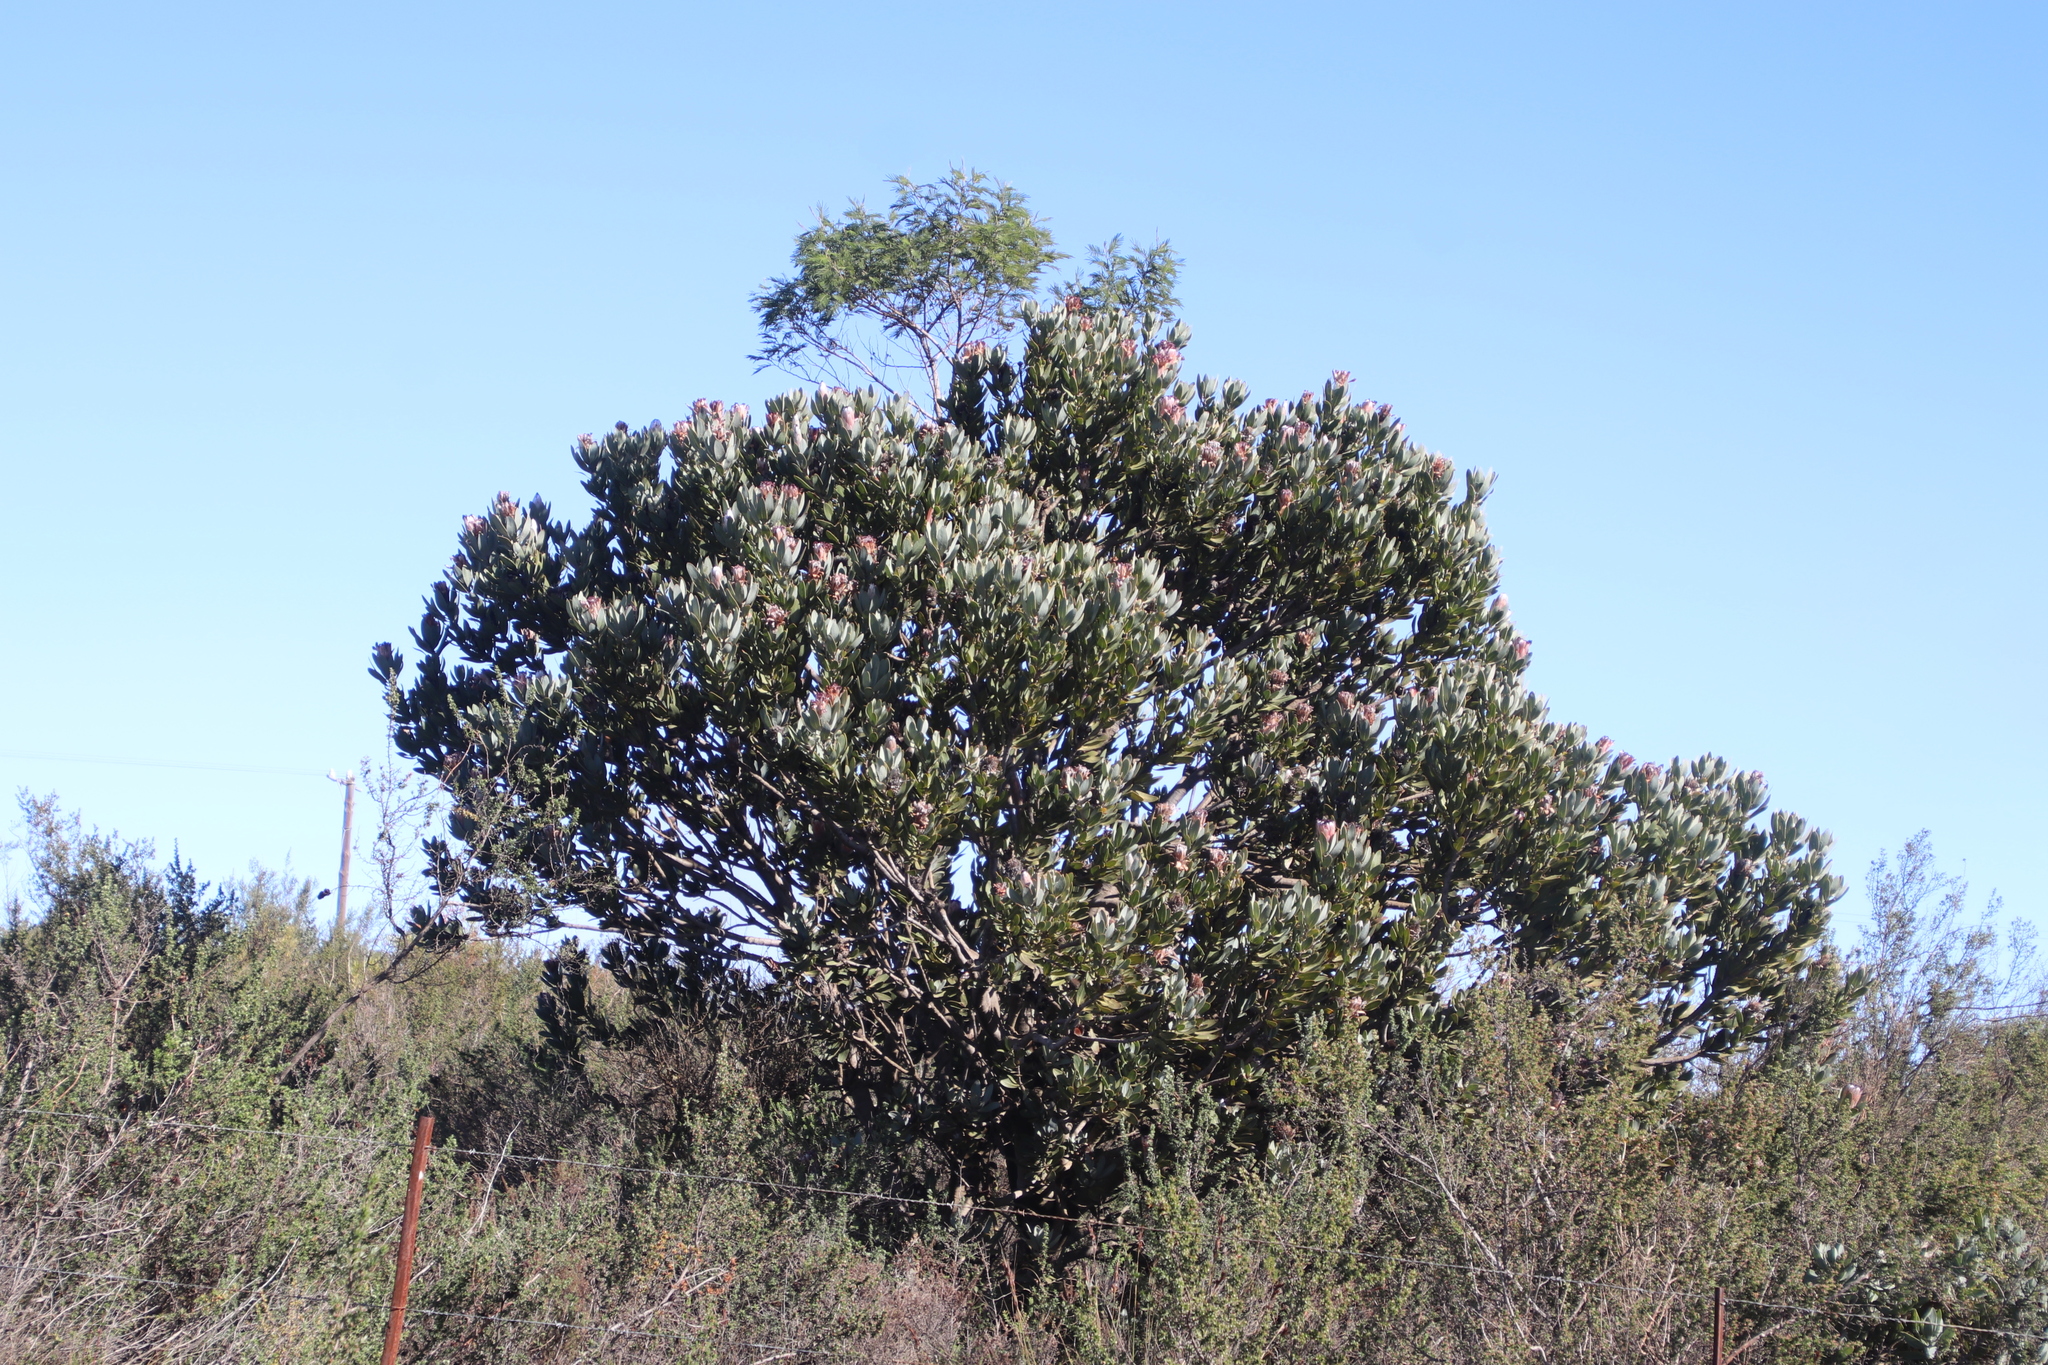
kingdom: Plantae
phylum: Tracheophyta
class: Magnoliopsida
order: Proteales
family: Proteaceae
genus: Protea
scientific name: Protea laurifolia
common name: Grey-leaf sugarbsh
